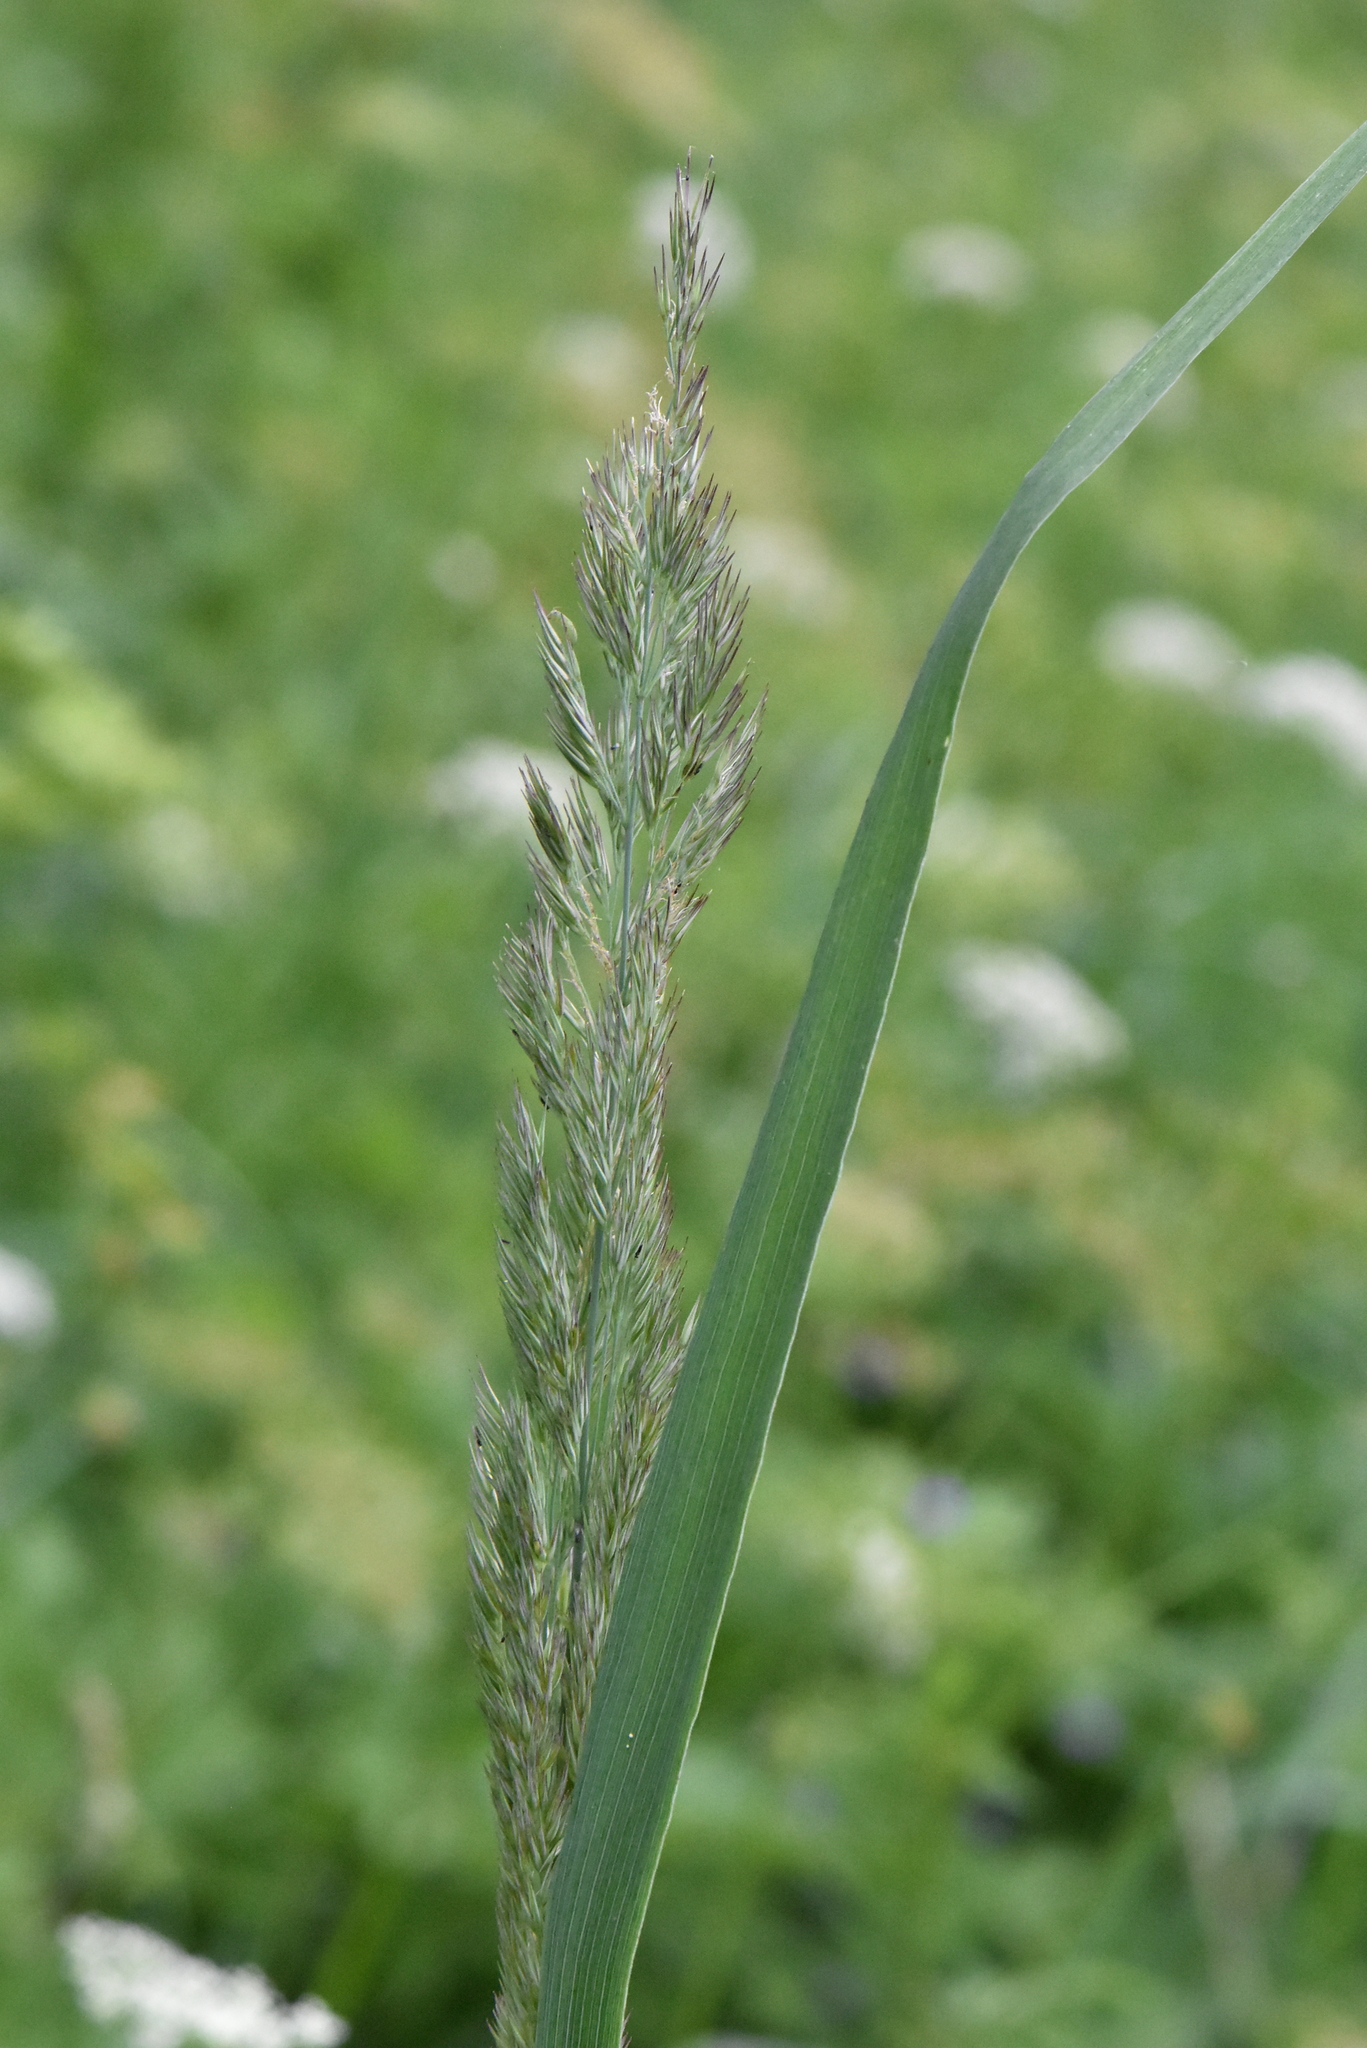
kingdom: Plantae
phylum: Tracheophyta
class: Liliopsida
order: Poales
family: Poaceae
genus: Calamagrostis
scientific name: Calamagrostis epigejos
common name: Wood small-reed
